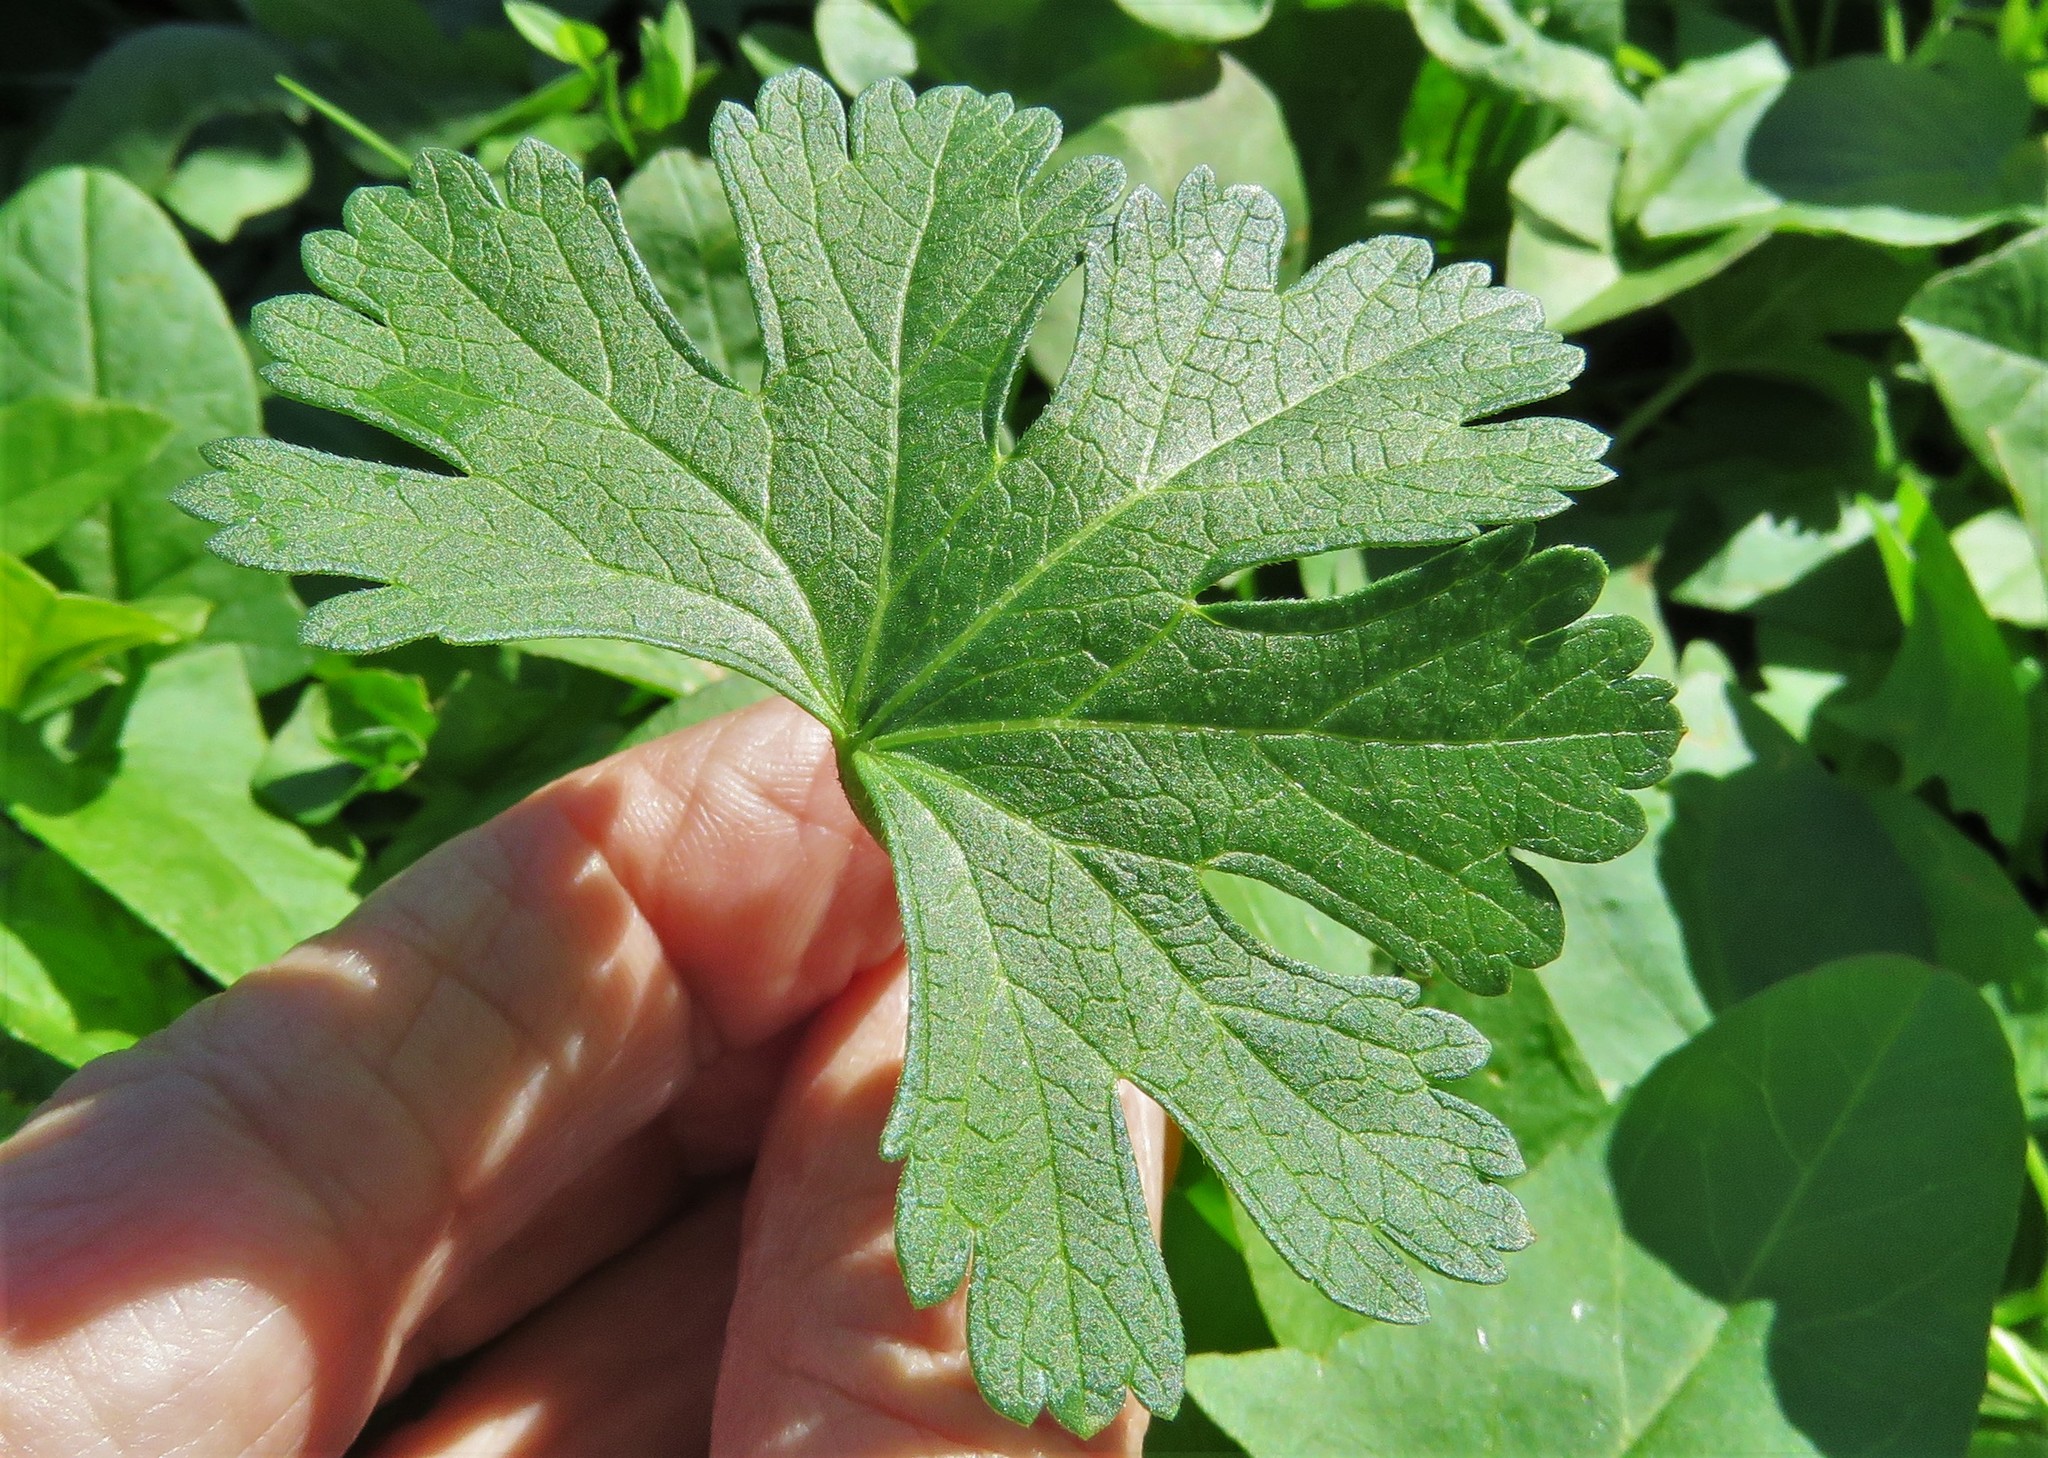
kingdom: Plantae
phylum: Tracheophyta
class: Magnoliopsida
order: Malvales
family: Malvaceae
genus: Callirhoe
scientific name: Callirhoe involucrata
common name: Purple poppy-mallow
